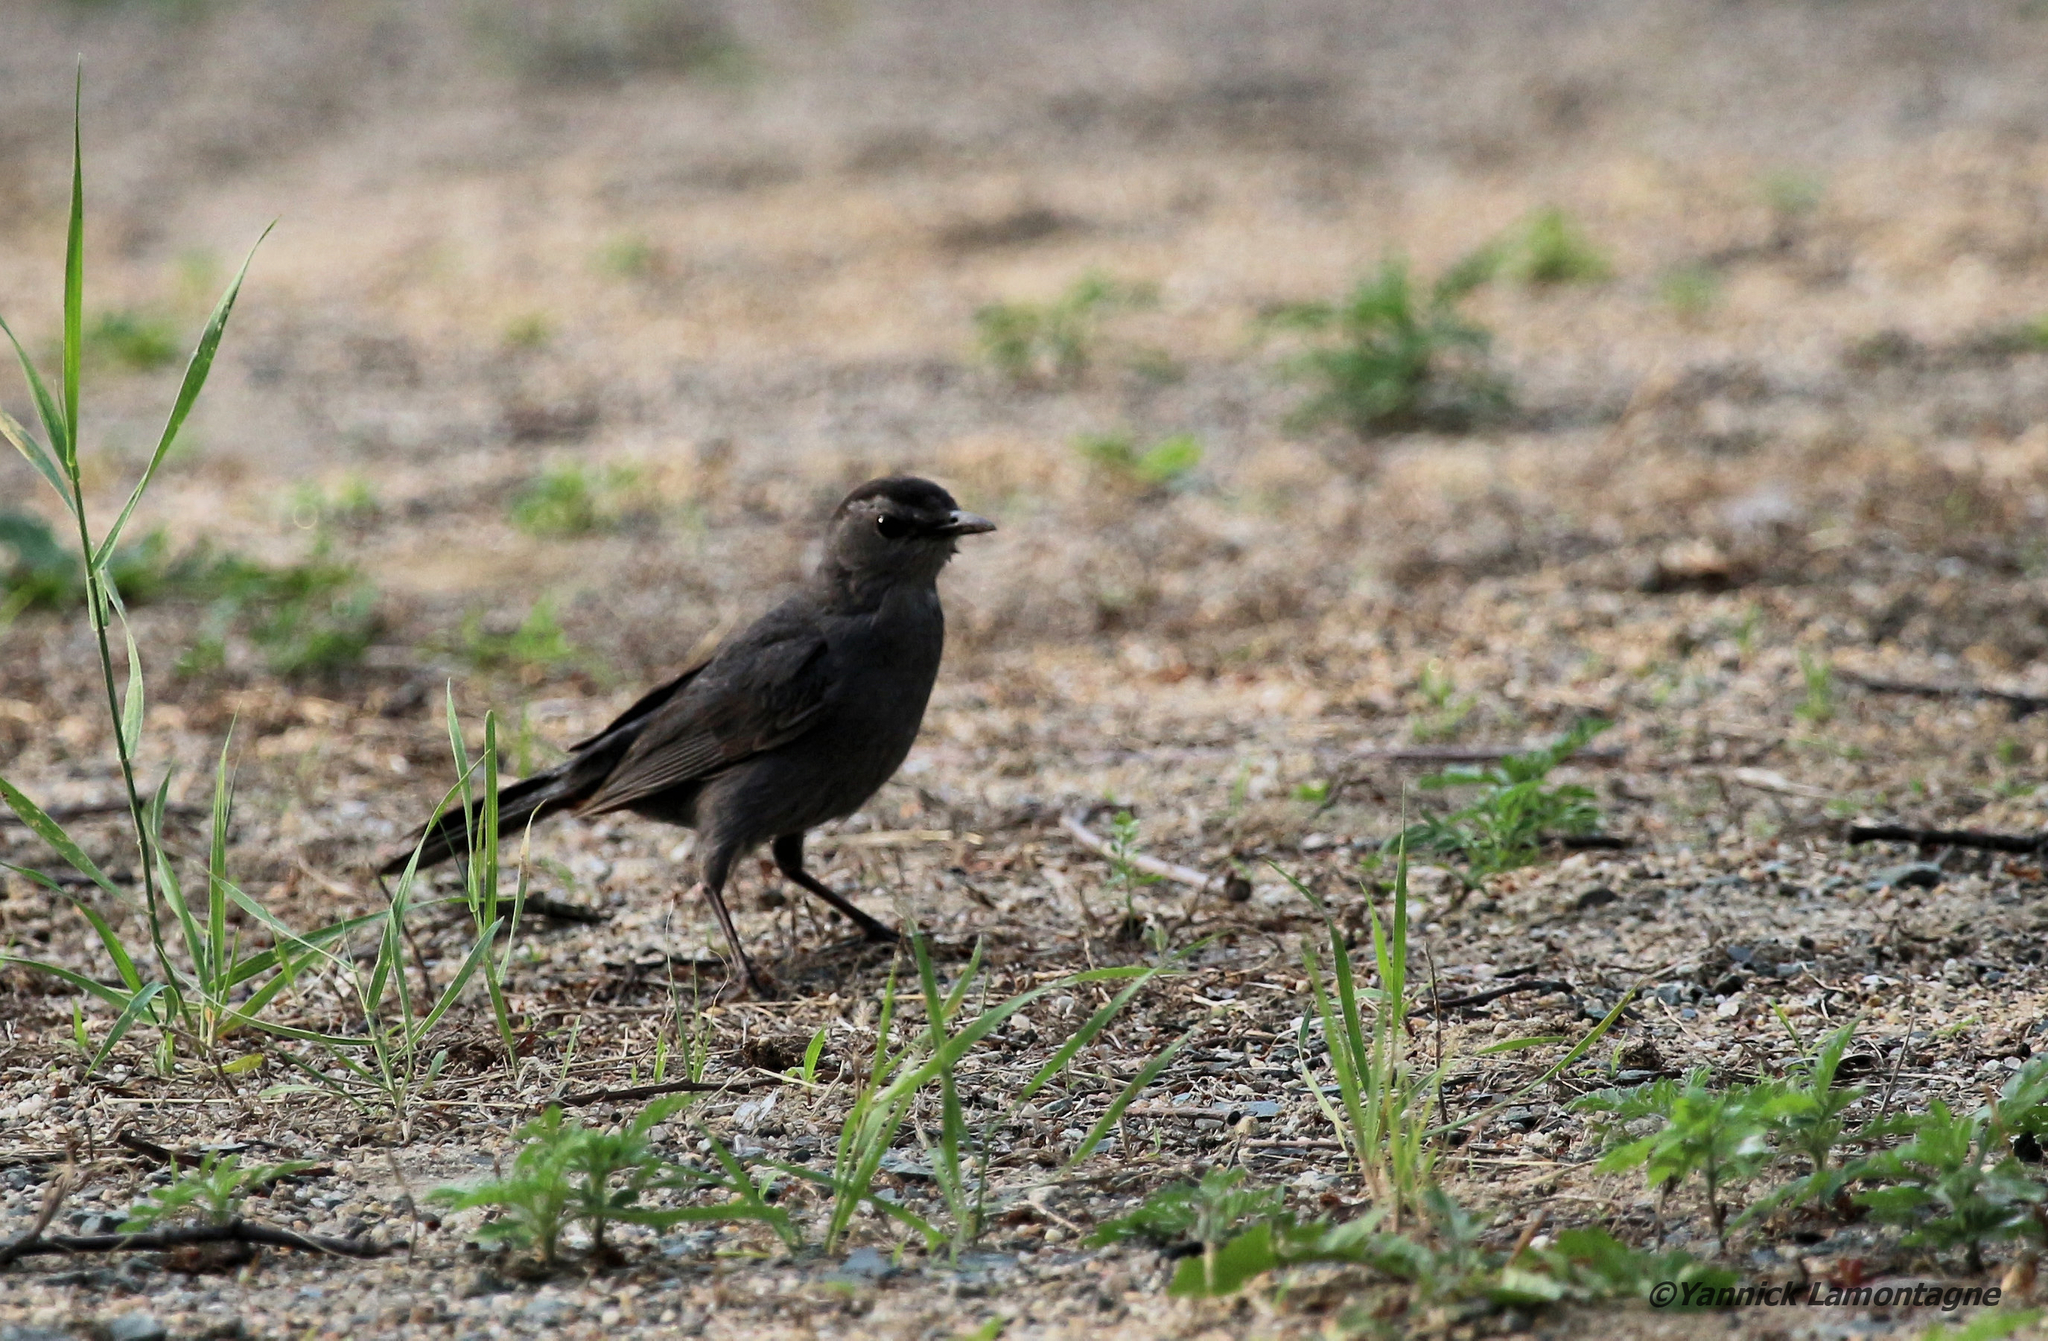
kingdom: Animalia
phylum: Chordata
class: Aves
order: Passeriformes
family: Mimidae
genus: Dumetella
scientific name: Dumetella carolinensis
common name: Gray catbird
